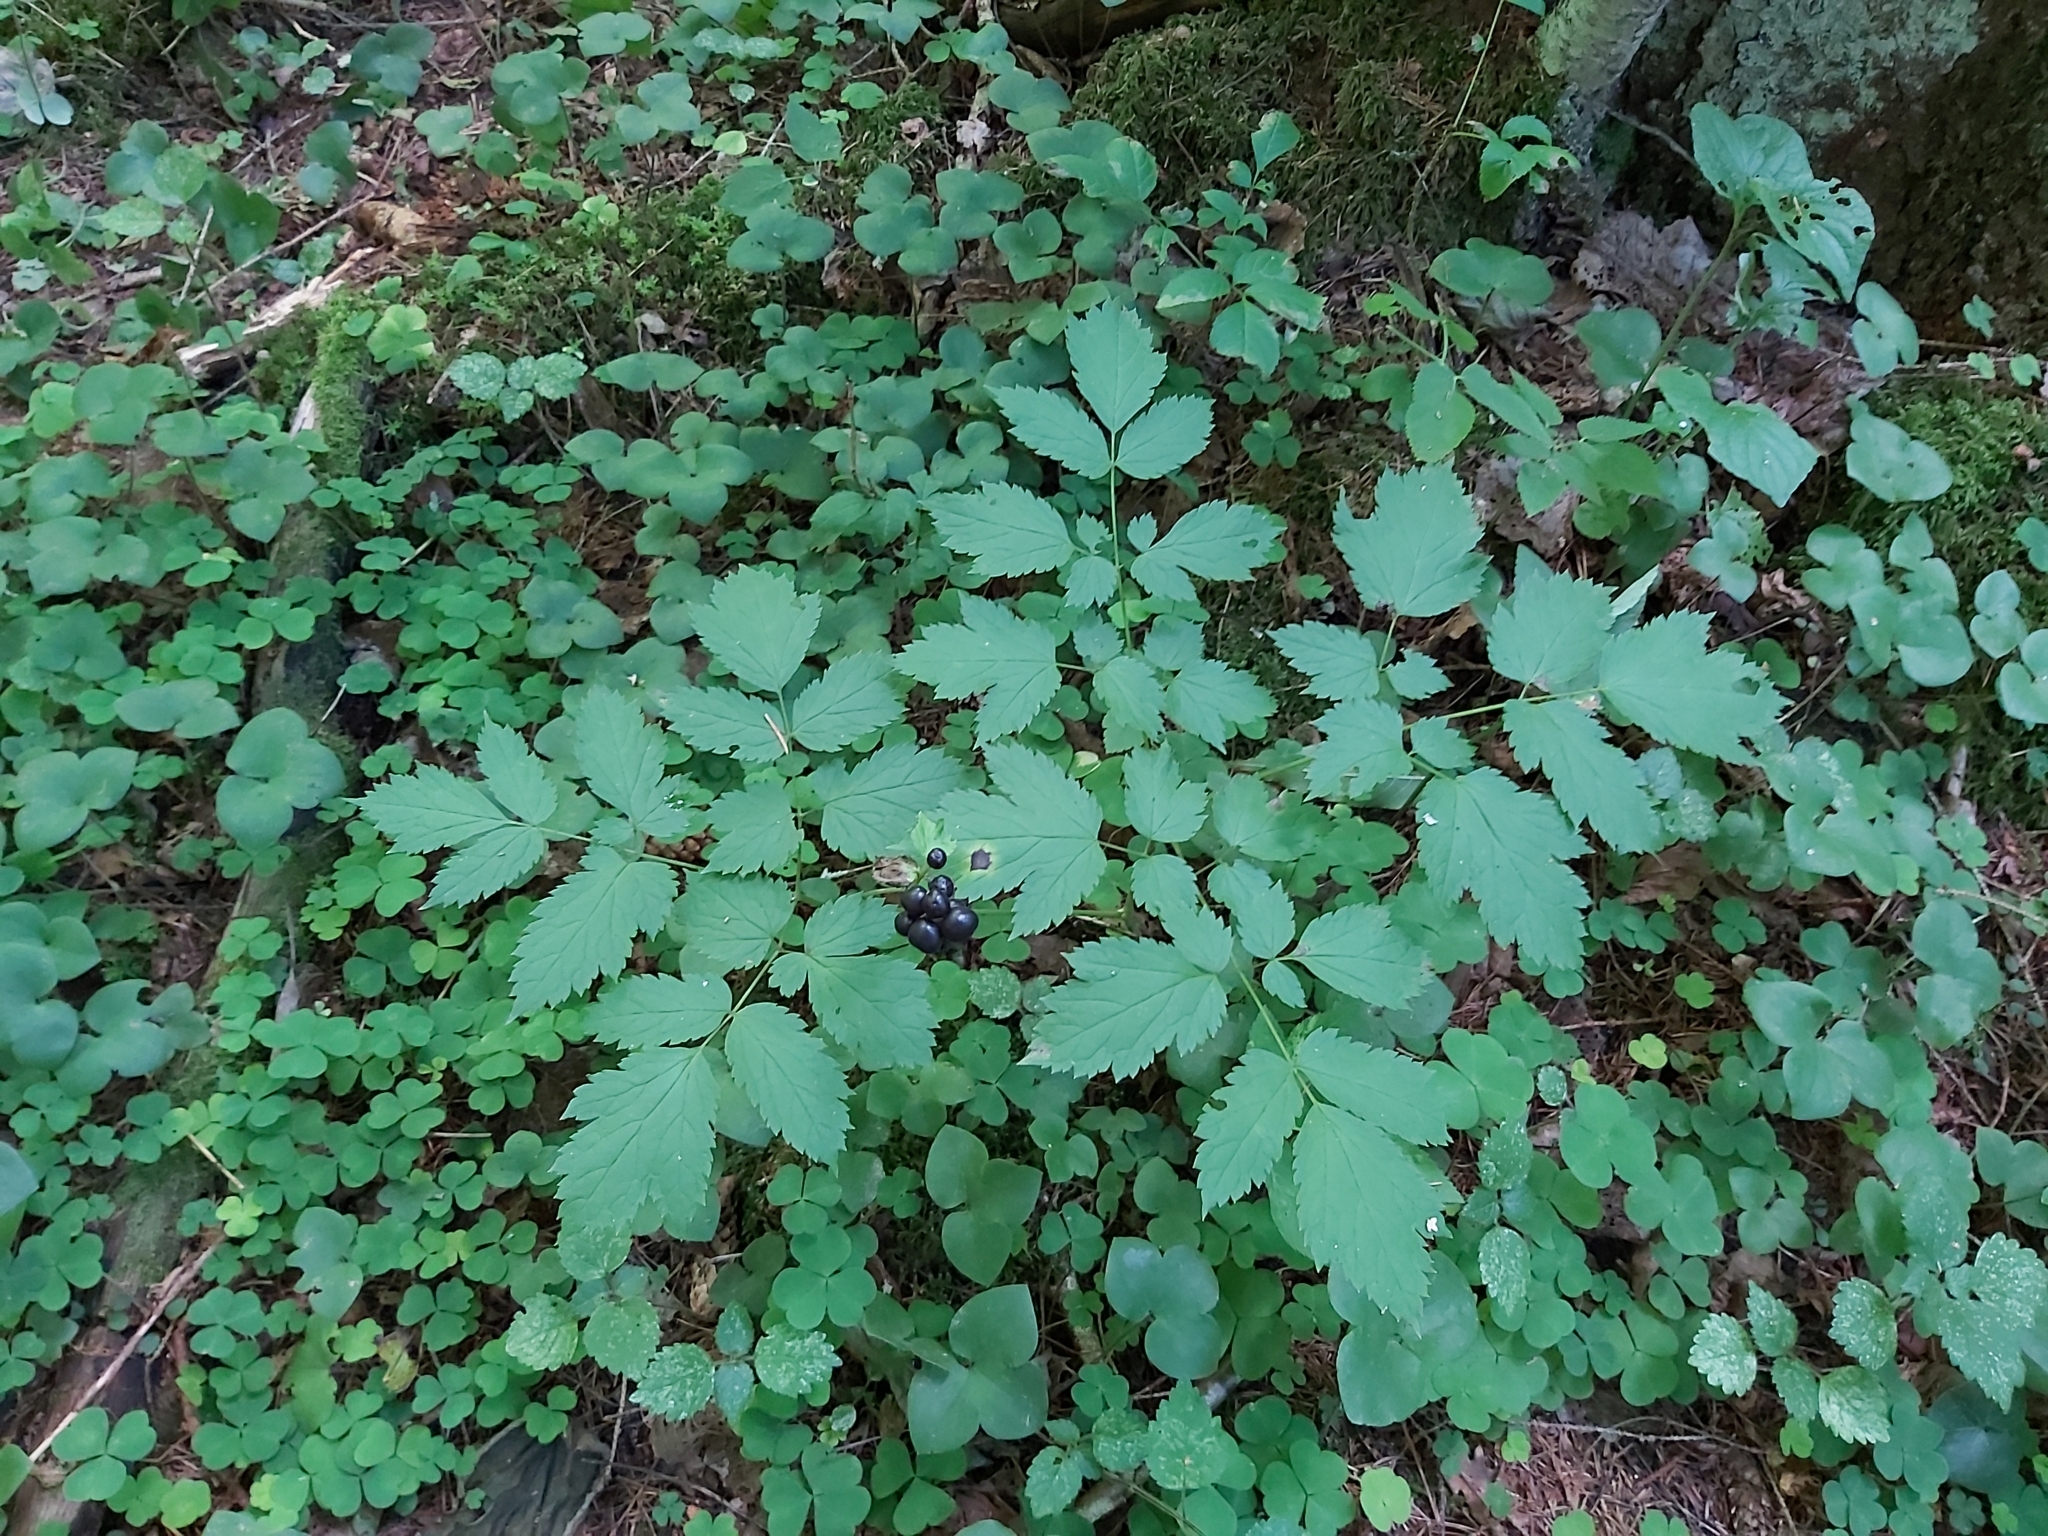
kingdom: Plantae
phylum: Tracheophyta
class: Magnoliopsida
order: Ranunculales
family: Ranunculaceae
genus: Actaea
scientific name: Actaea spicata
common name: Baneberry
